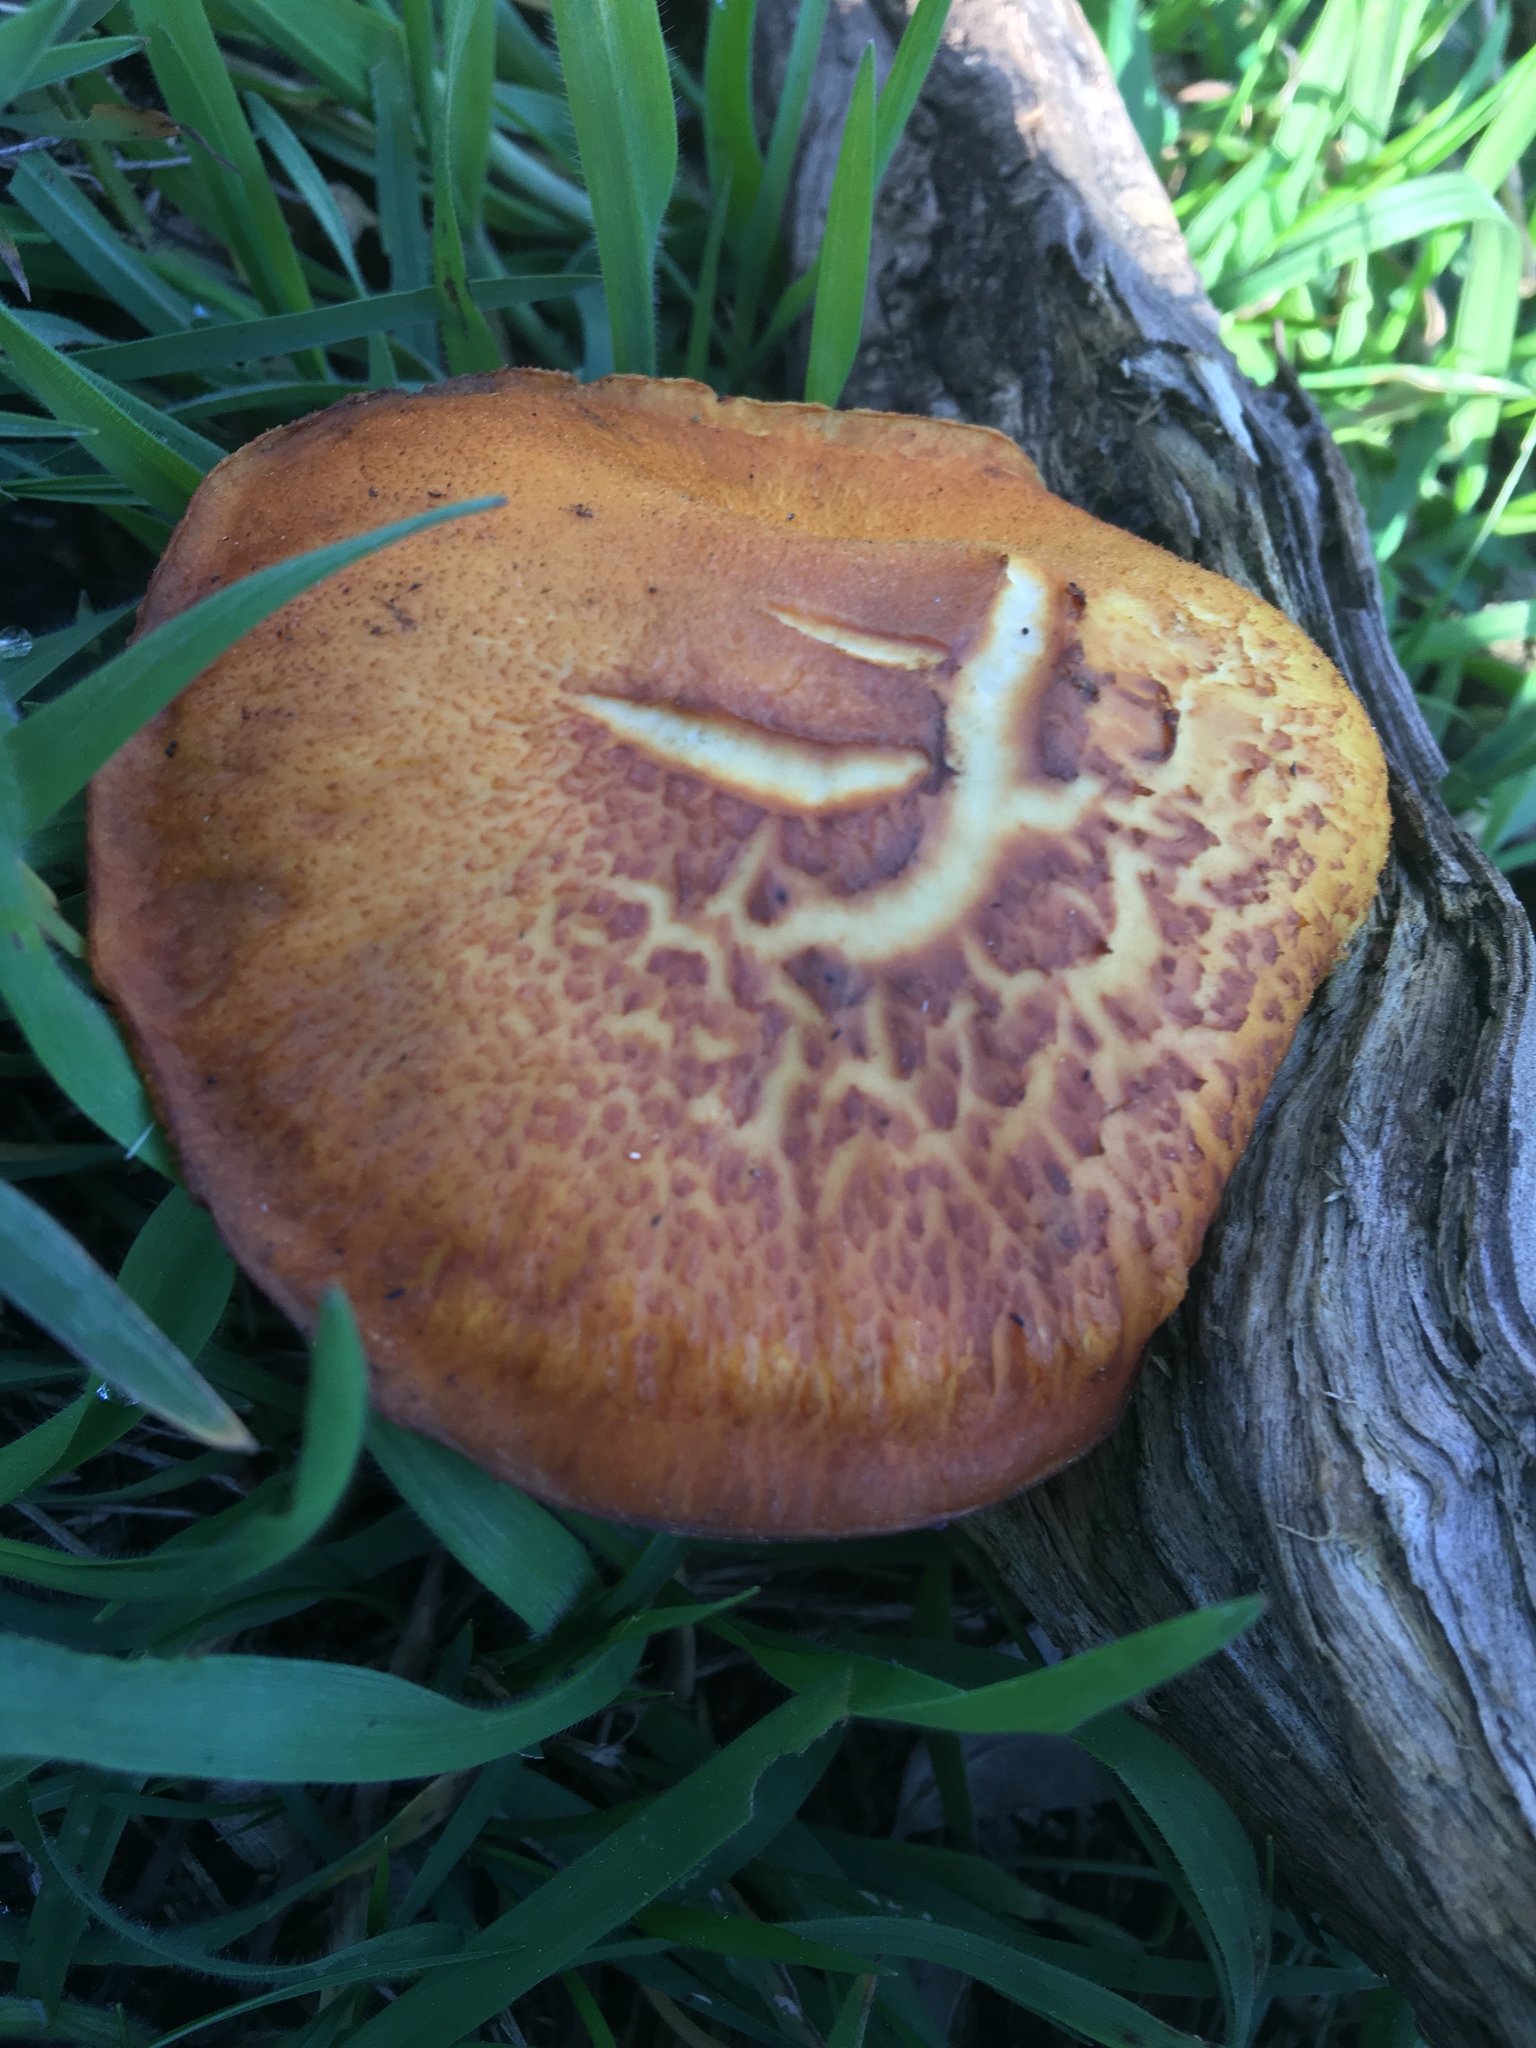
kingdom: Fungi
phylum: Basidiomycota
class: Agaricomycetes
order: Agaricales
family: Hymenogastraceae
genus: Gymnopilus
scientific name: Gymnopilus junonius
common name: Spectacular rustgill
